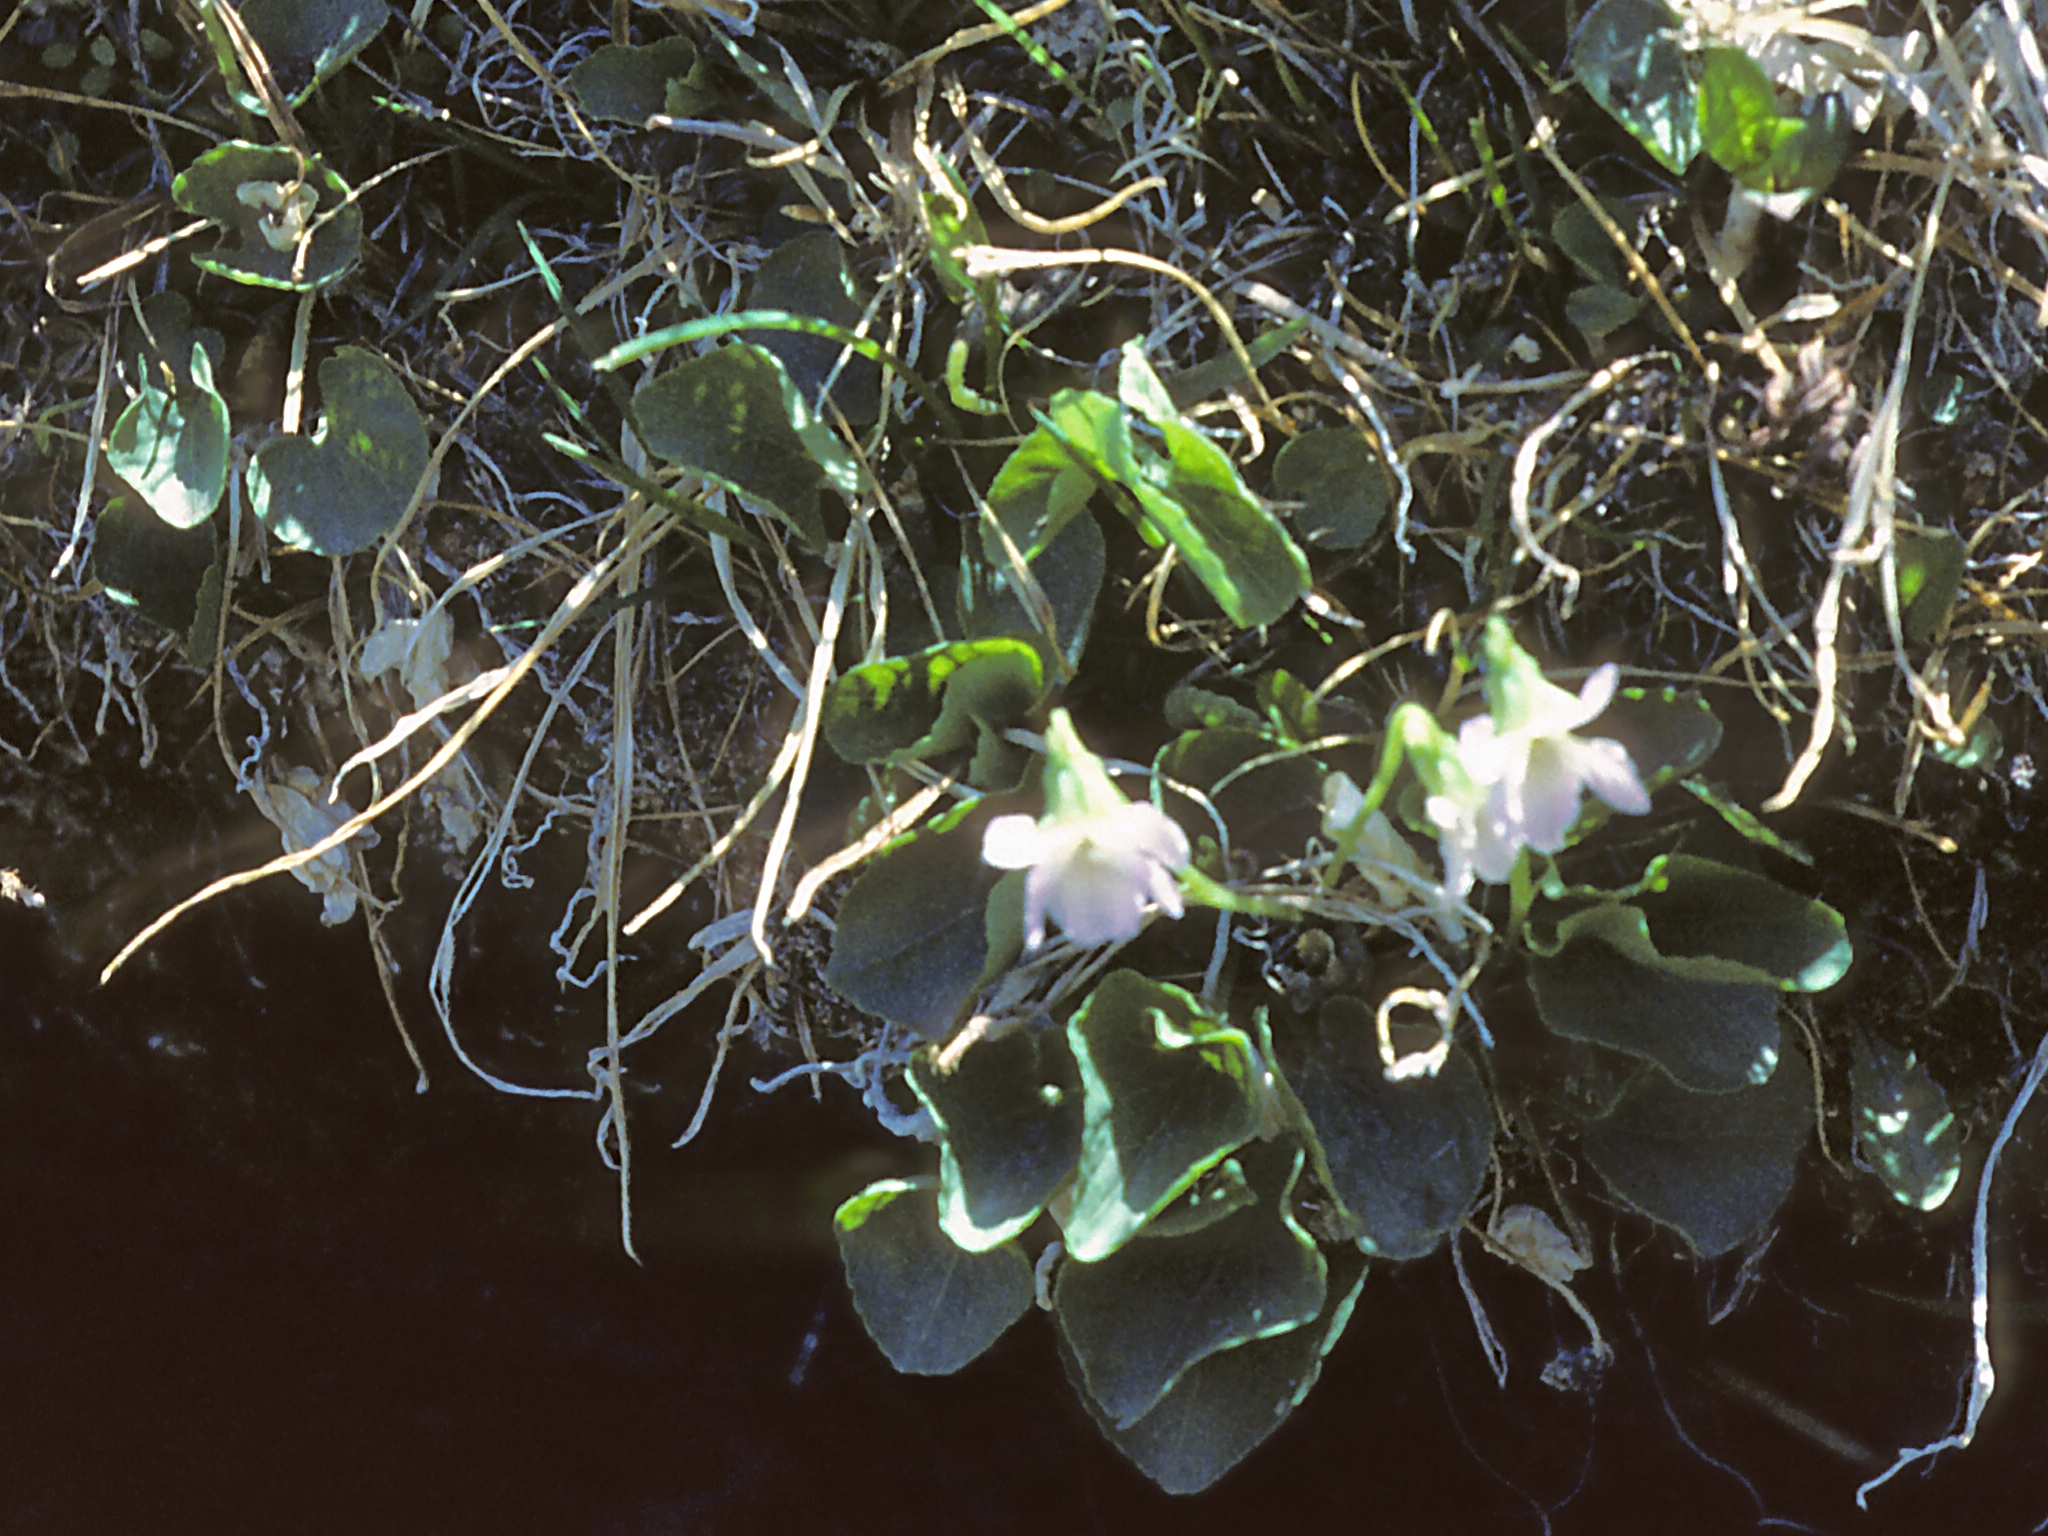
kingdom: Plantae
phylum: Tracheophyta
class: Magnoliopsida
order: Malpighiales
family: Violaceae
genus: Viola
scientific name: Viola nephrophylla
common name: Blue meadow violet
